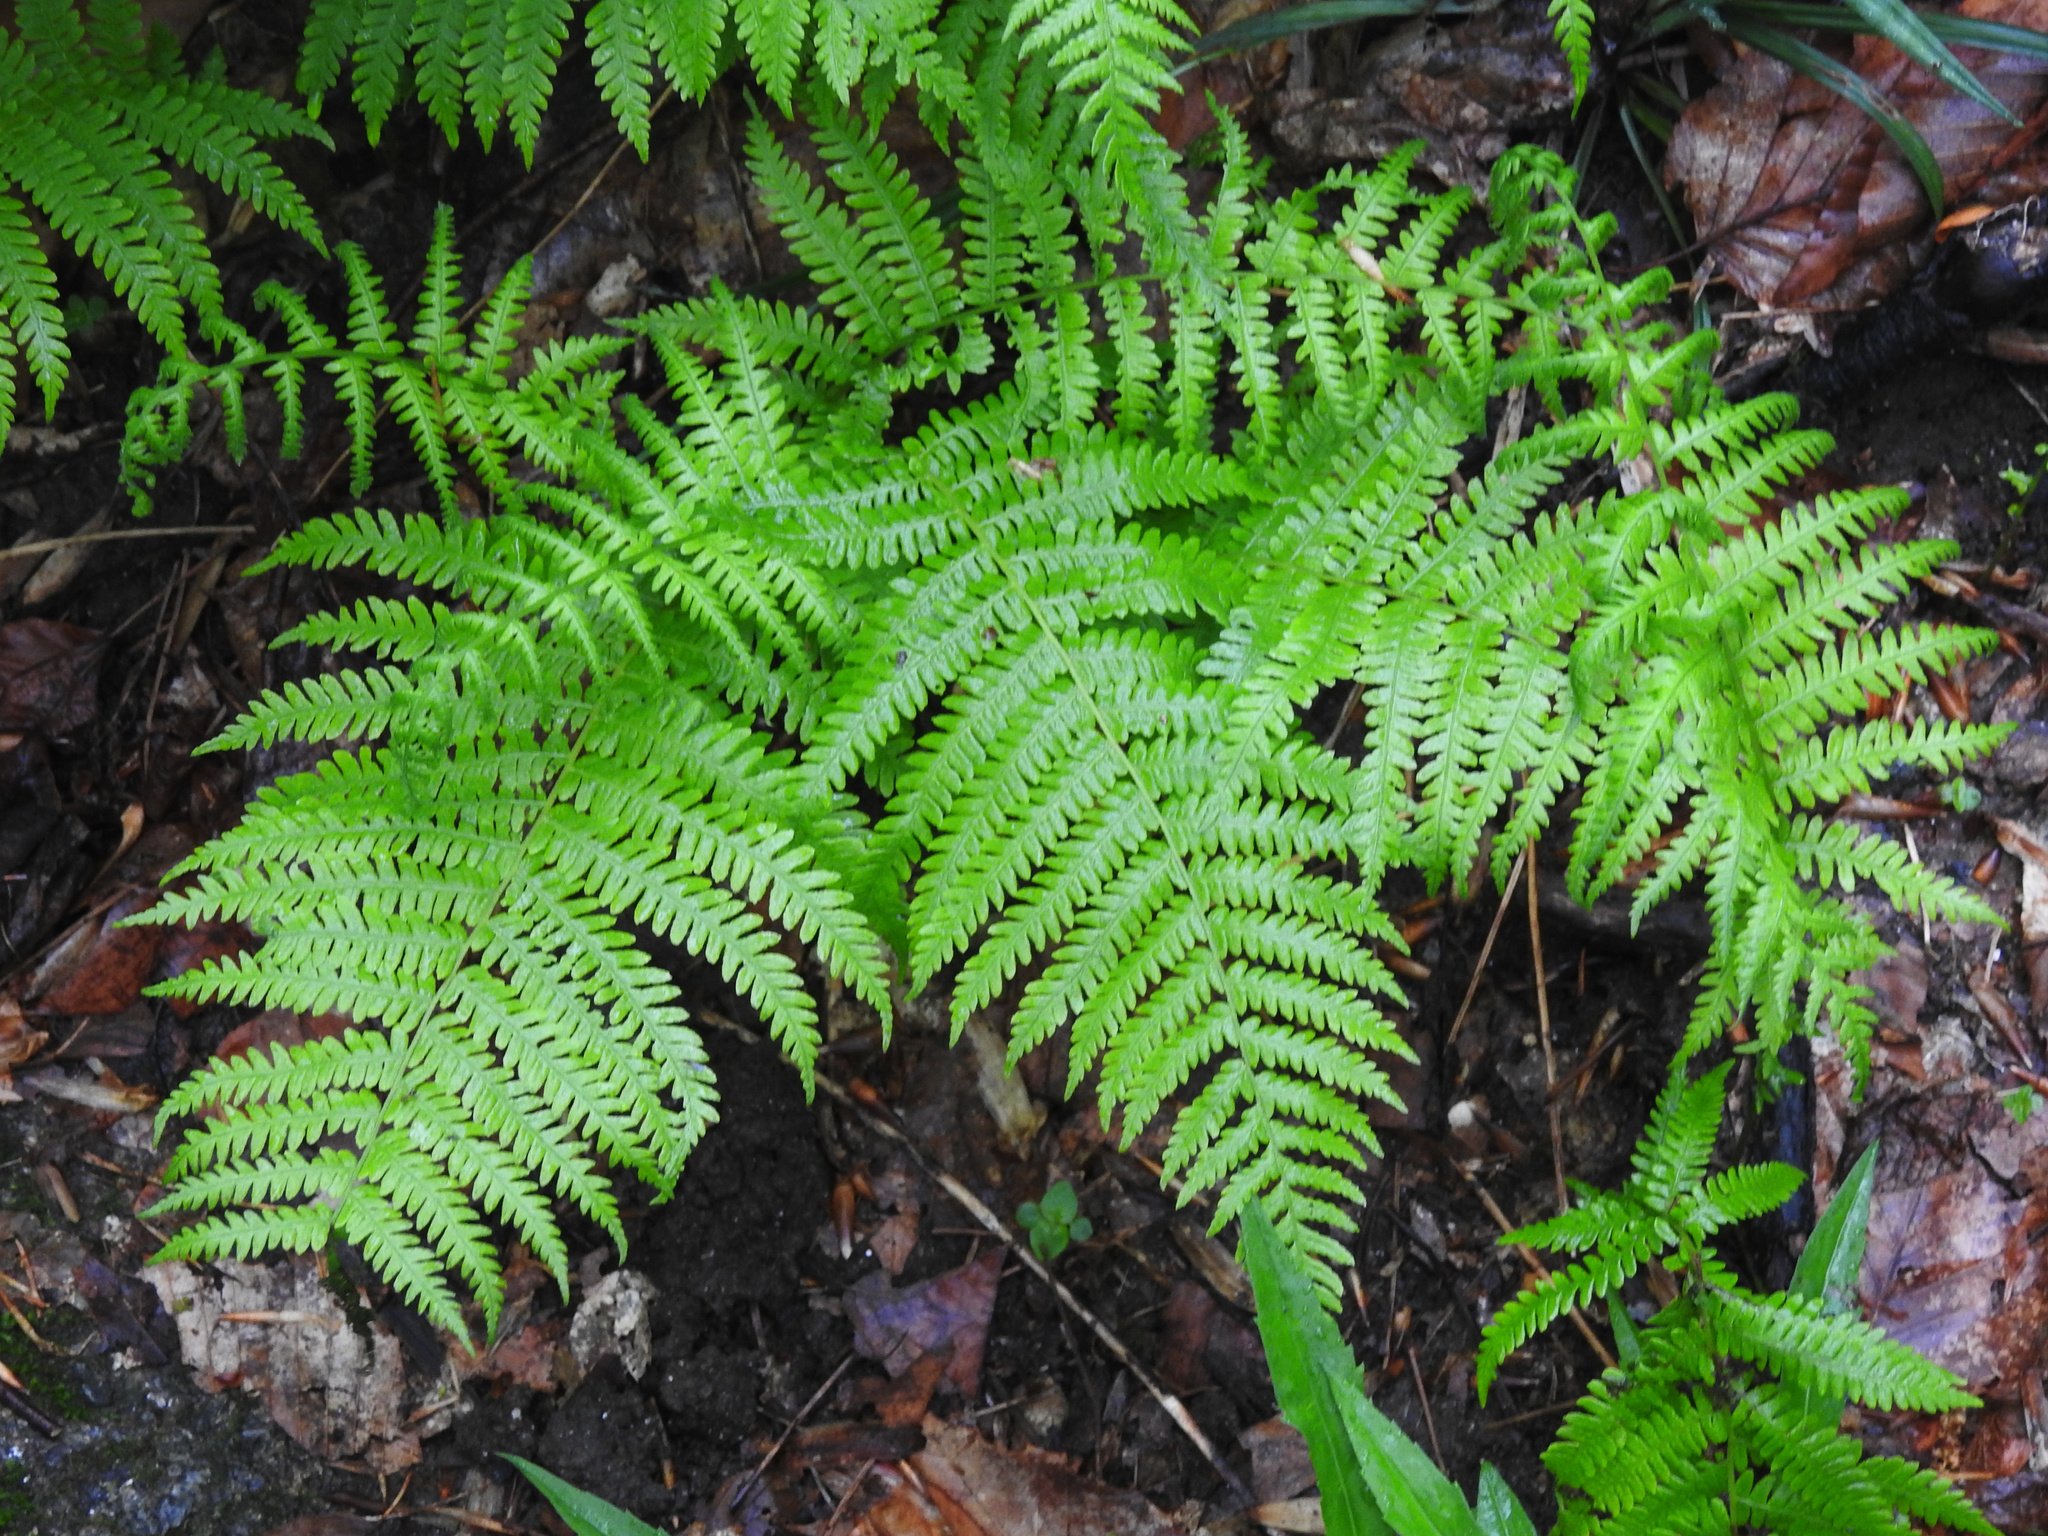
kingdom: Plantae
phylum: Tracheophyta
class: Polypodiopsida
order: Polypodiales
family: Thelypteridaceae
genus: Amauropelta
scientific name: Amauropelta noveboracensis
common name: New york fern
